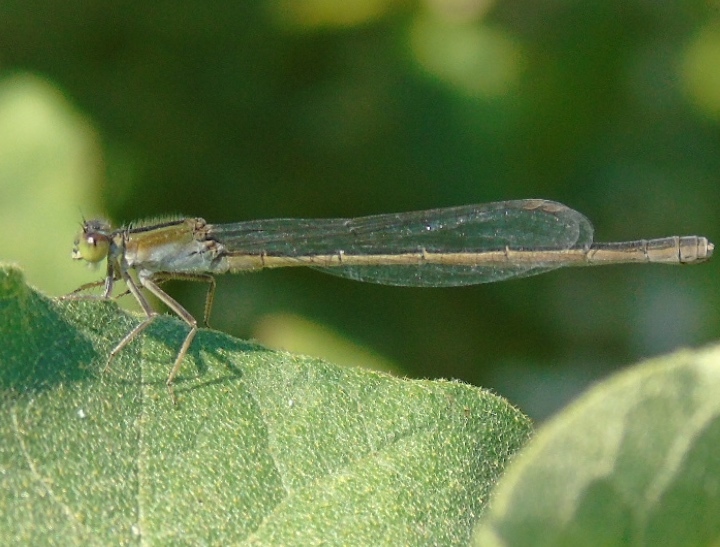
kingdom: Animalia
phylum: Arthropoda
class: Insecta
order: Odonata
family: Coenagrionidae
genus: Ischnura
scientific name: Ischnura
